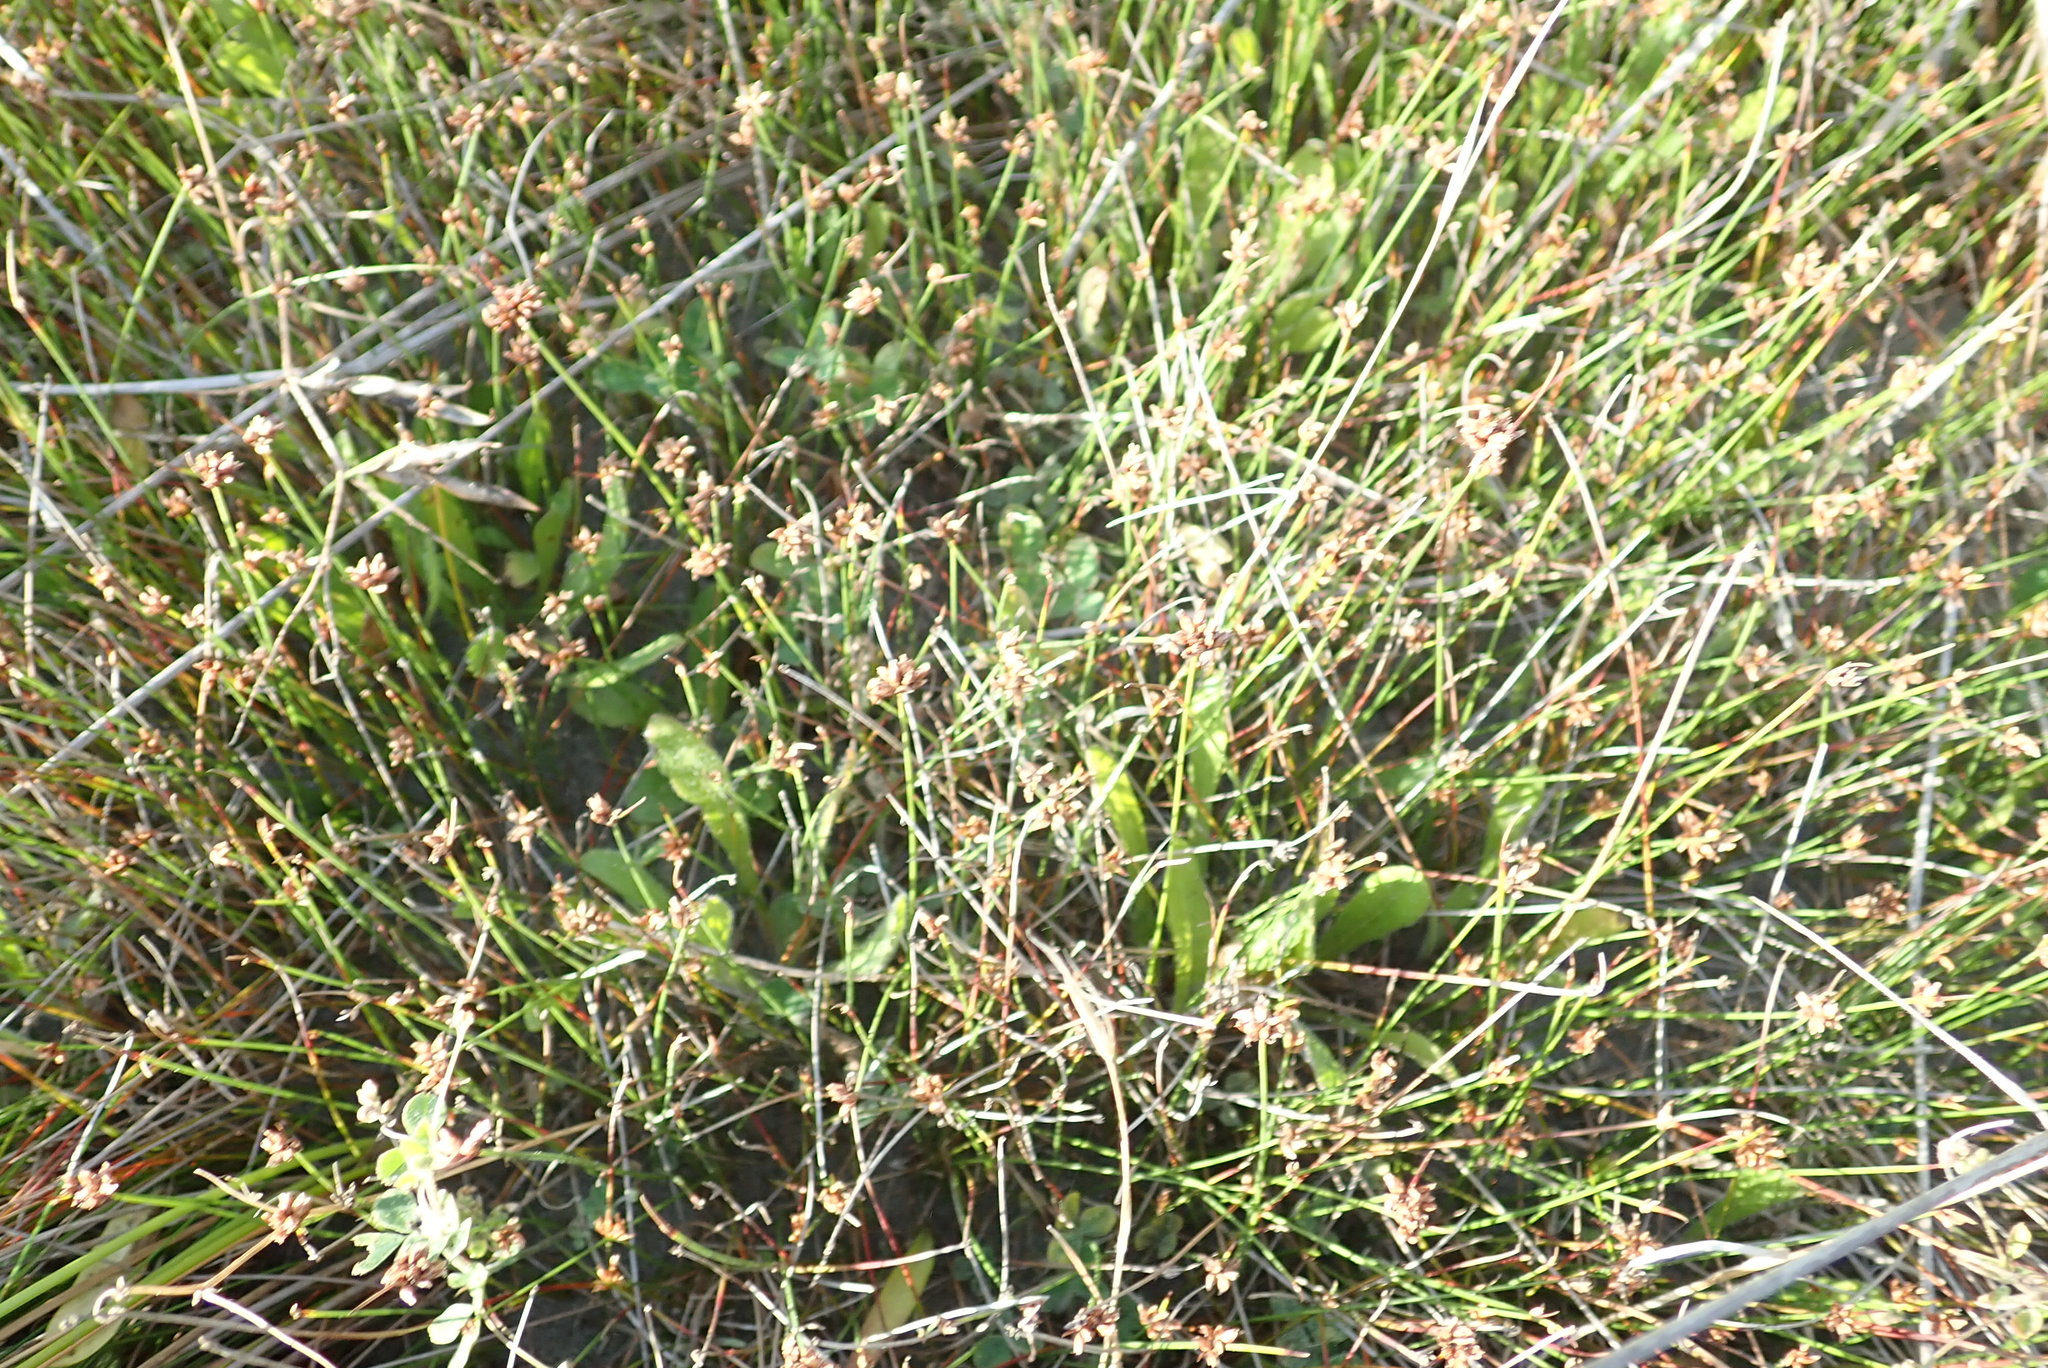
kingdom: Plantae
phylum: Tracheophyta
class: Liliopsida
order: Poales
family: Cyperaceae
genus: Schoenus
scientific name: Schoenus nitens
